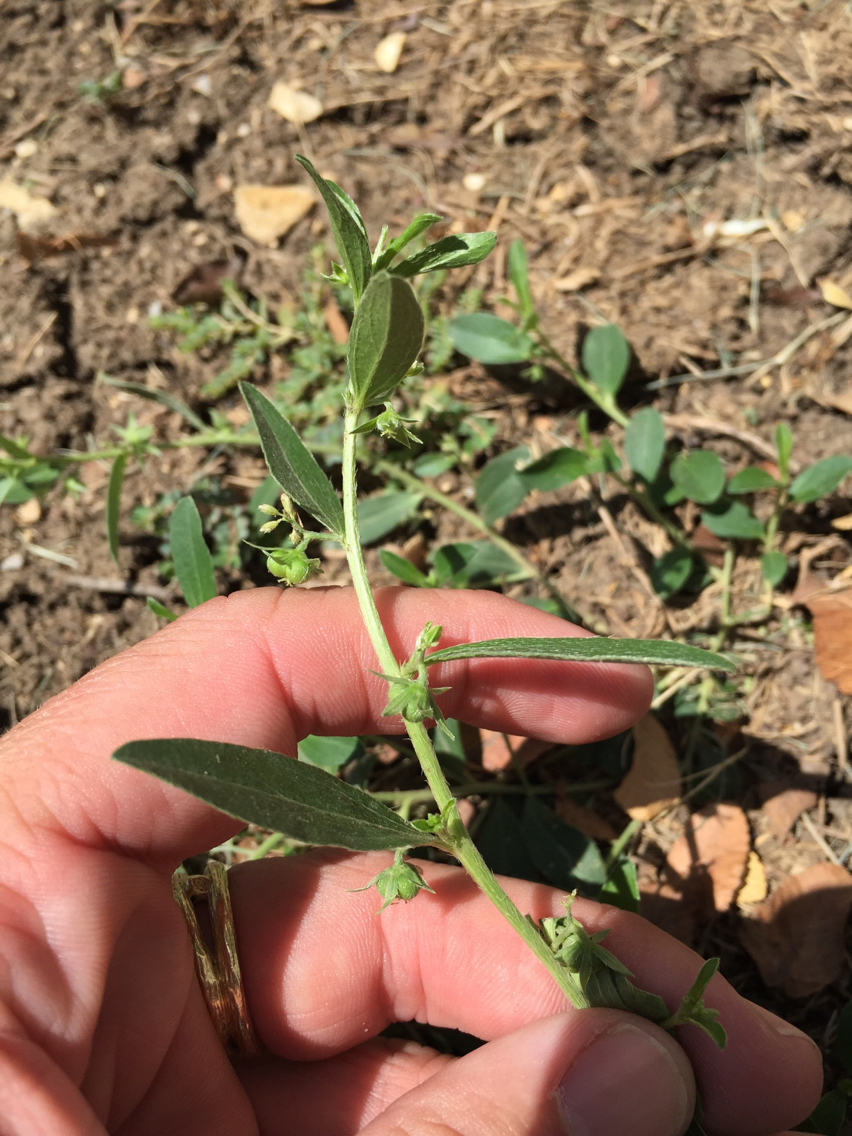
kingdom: Plantae
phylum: Tracheophyta
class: Magnoliopsida
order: Malpighiales
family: Euphorbiaceae
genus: Ditaxis
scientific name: Ditaxis humilis
